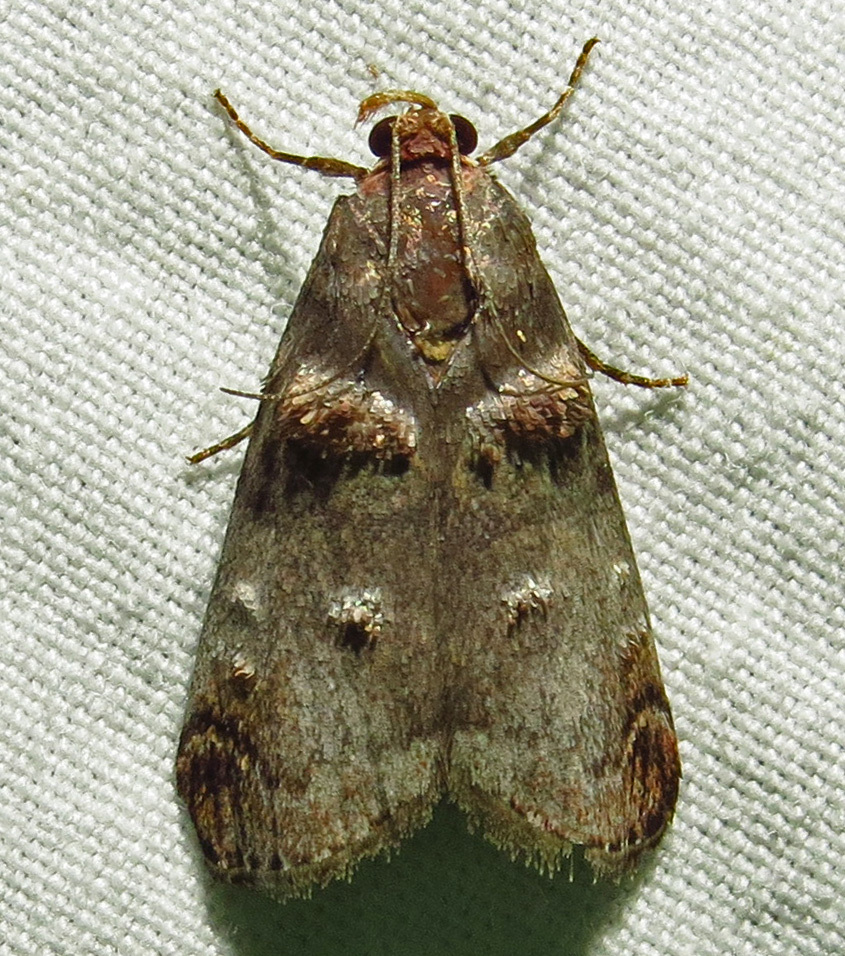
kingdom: Animalia
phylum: Arthropoda
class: Insecta
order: Lepidoptera
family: Pyralidae
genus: Oneida
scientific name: Oneida lunulalis
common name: Orange-tufted oneida moth
